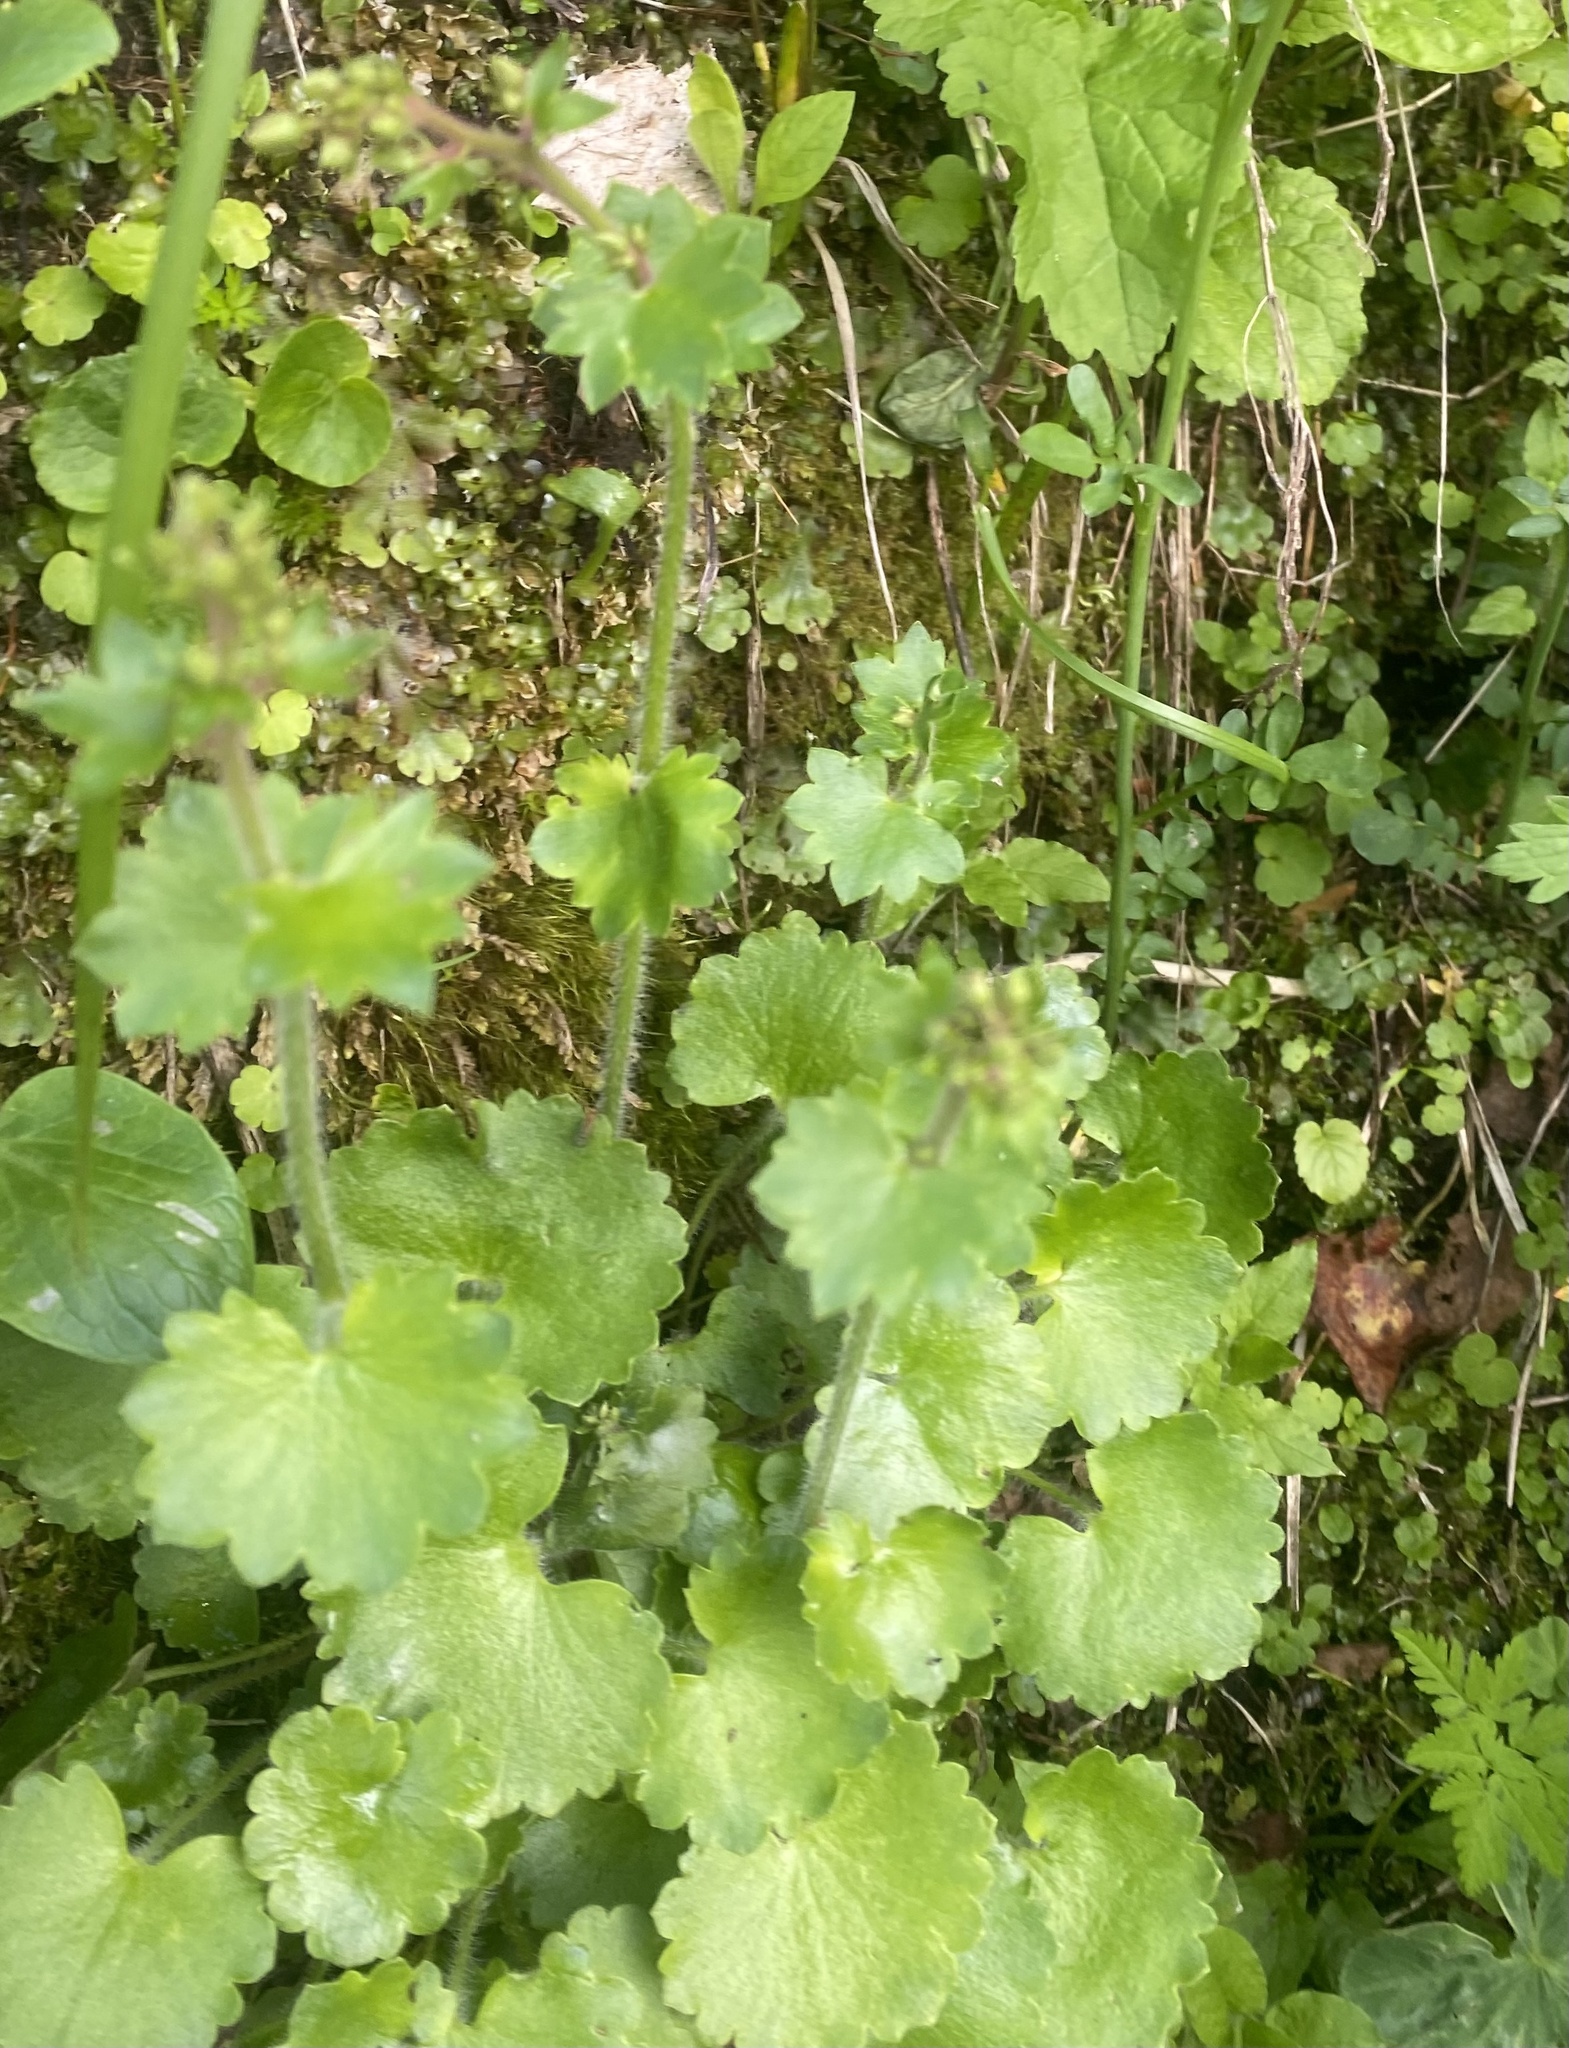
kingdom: Plantae
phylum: Tracheophyta
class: Magnoliopsida
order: Saxifragales
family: Saxifragaceae
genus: Saxifraga
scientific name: Saxifraga rotundifolia
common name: Round-leaved saxifrage
